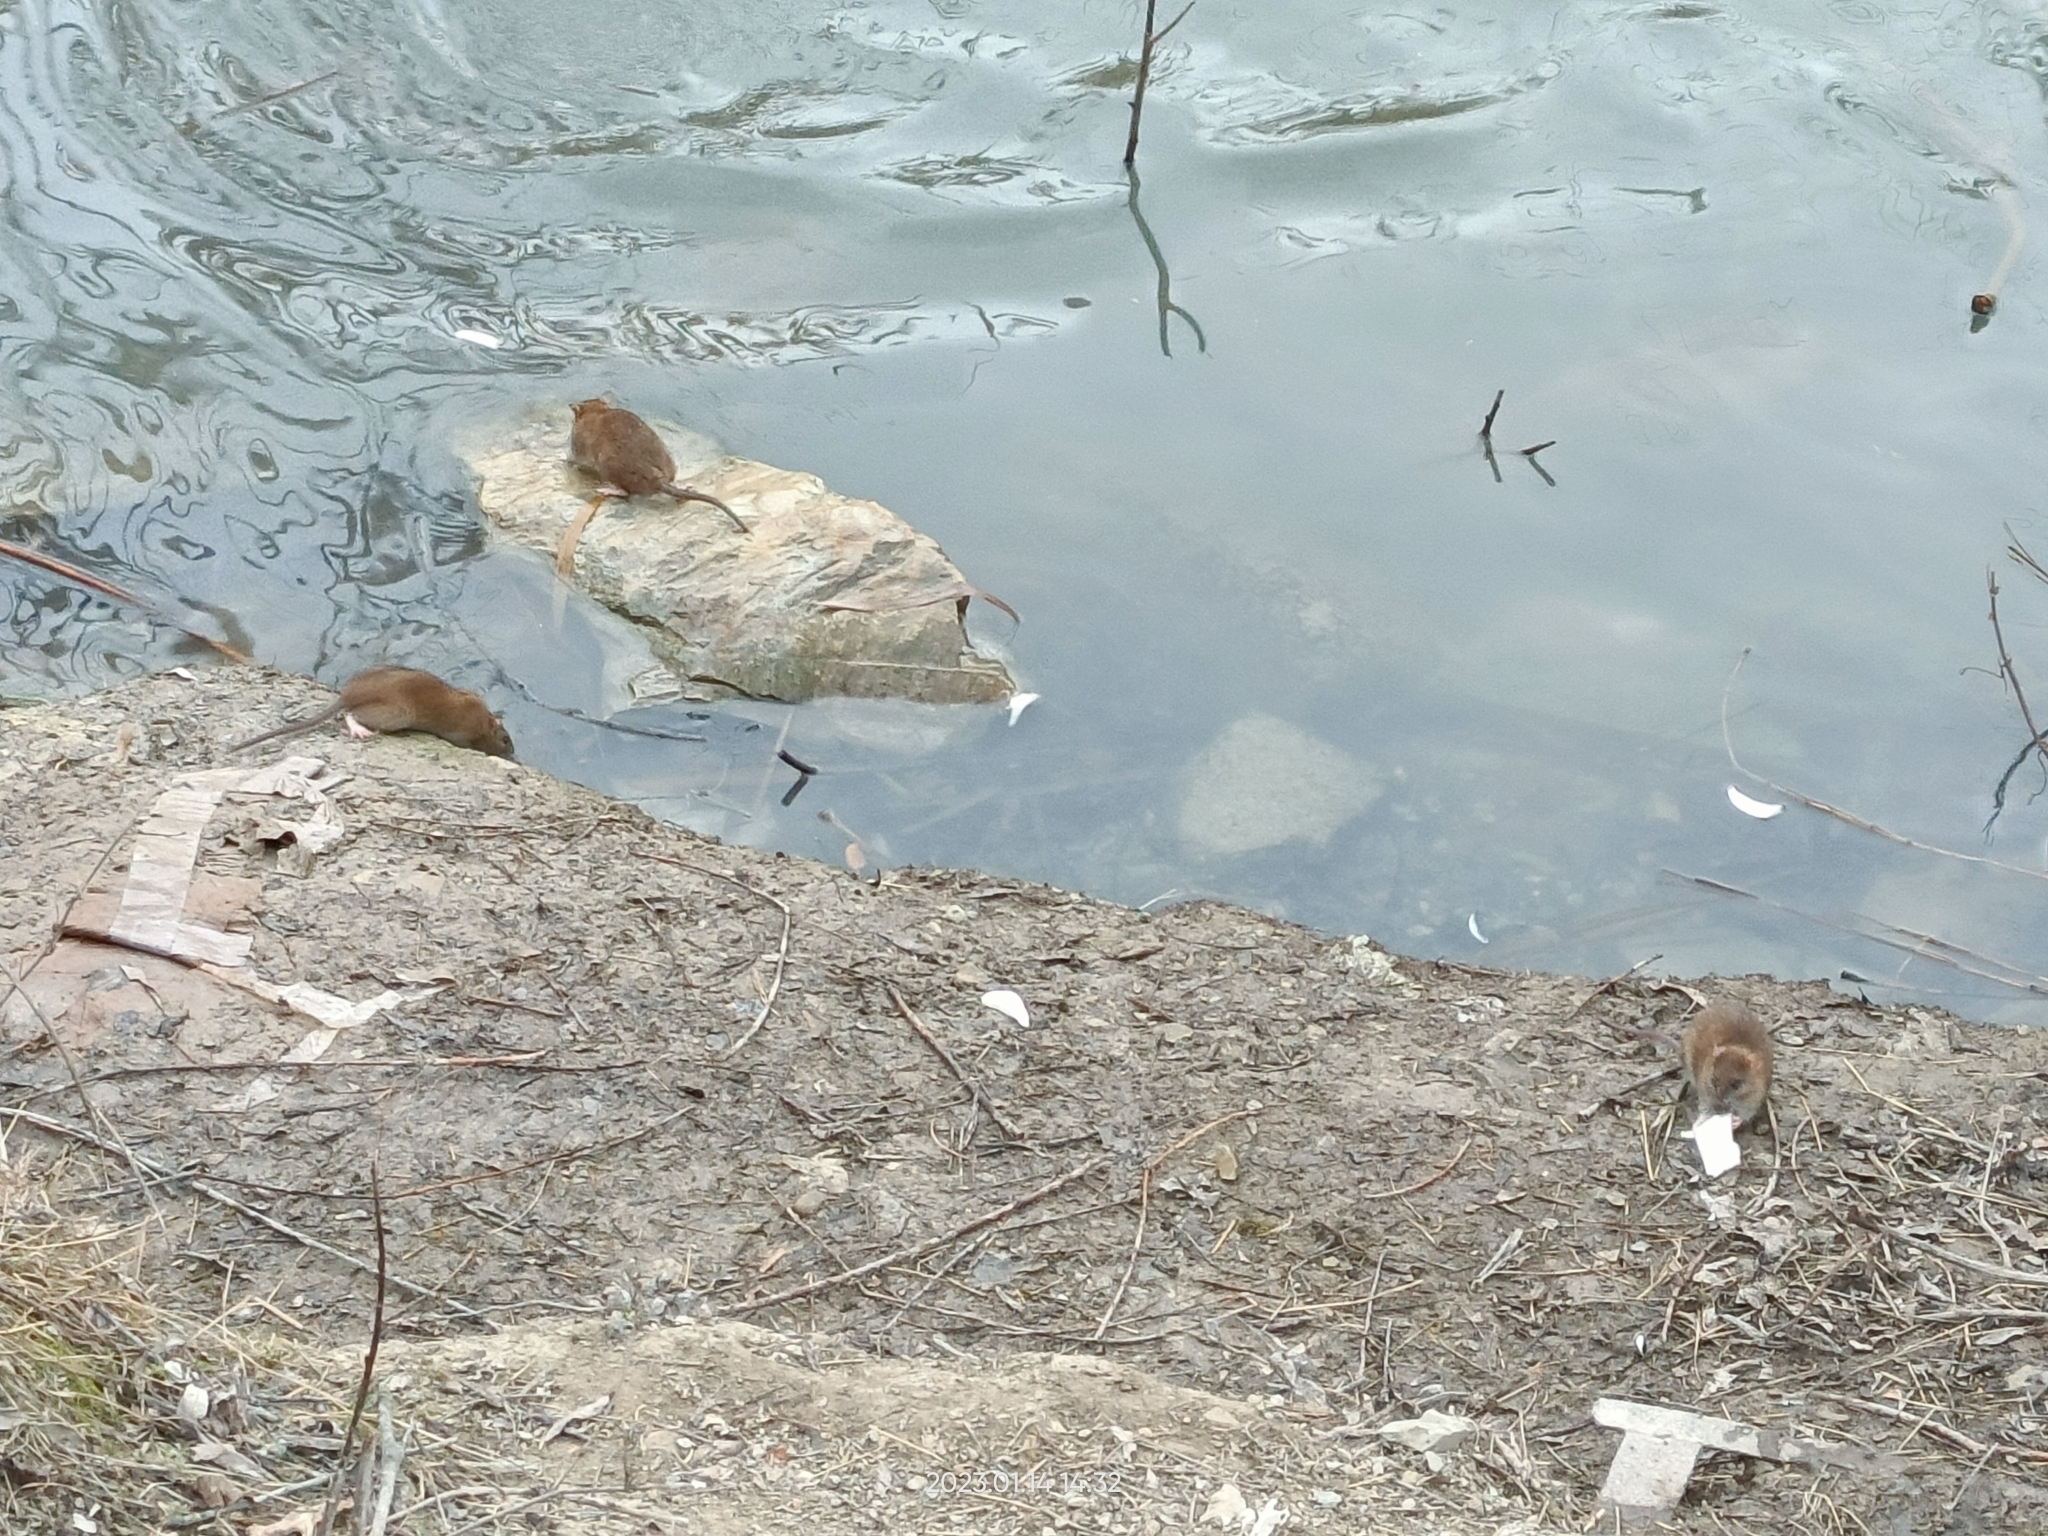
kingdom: Animalia
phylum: Chordata
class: Mammalia
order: Rodentia
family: Muridae
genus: Rattus
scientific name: Rattus norvegicus
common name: Brown rat
